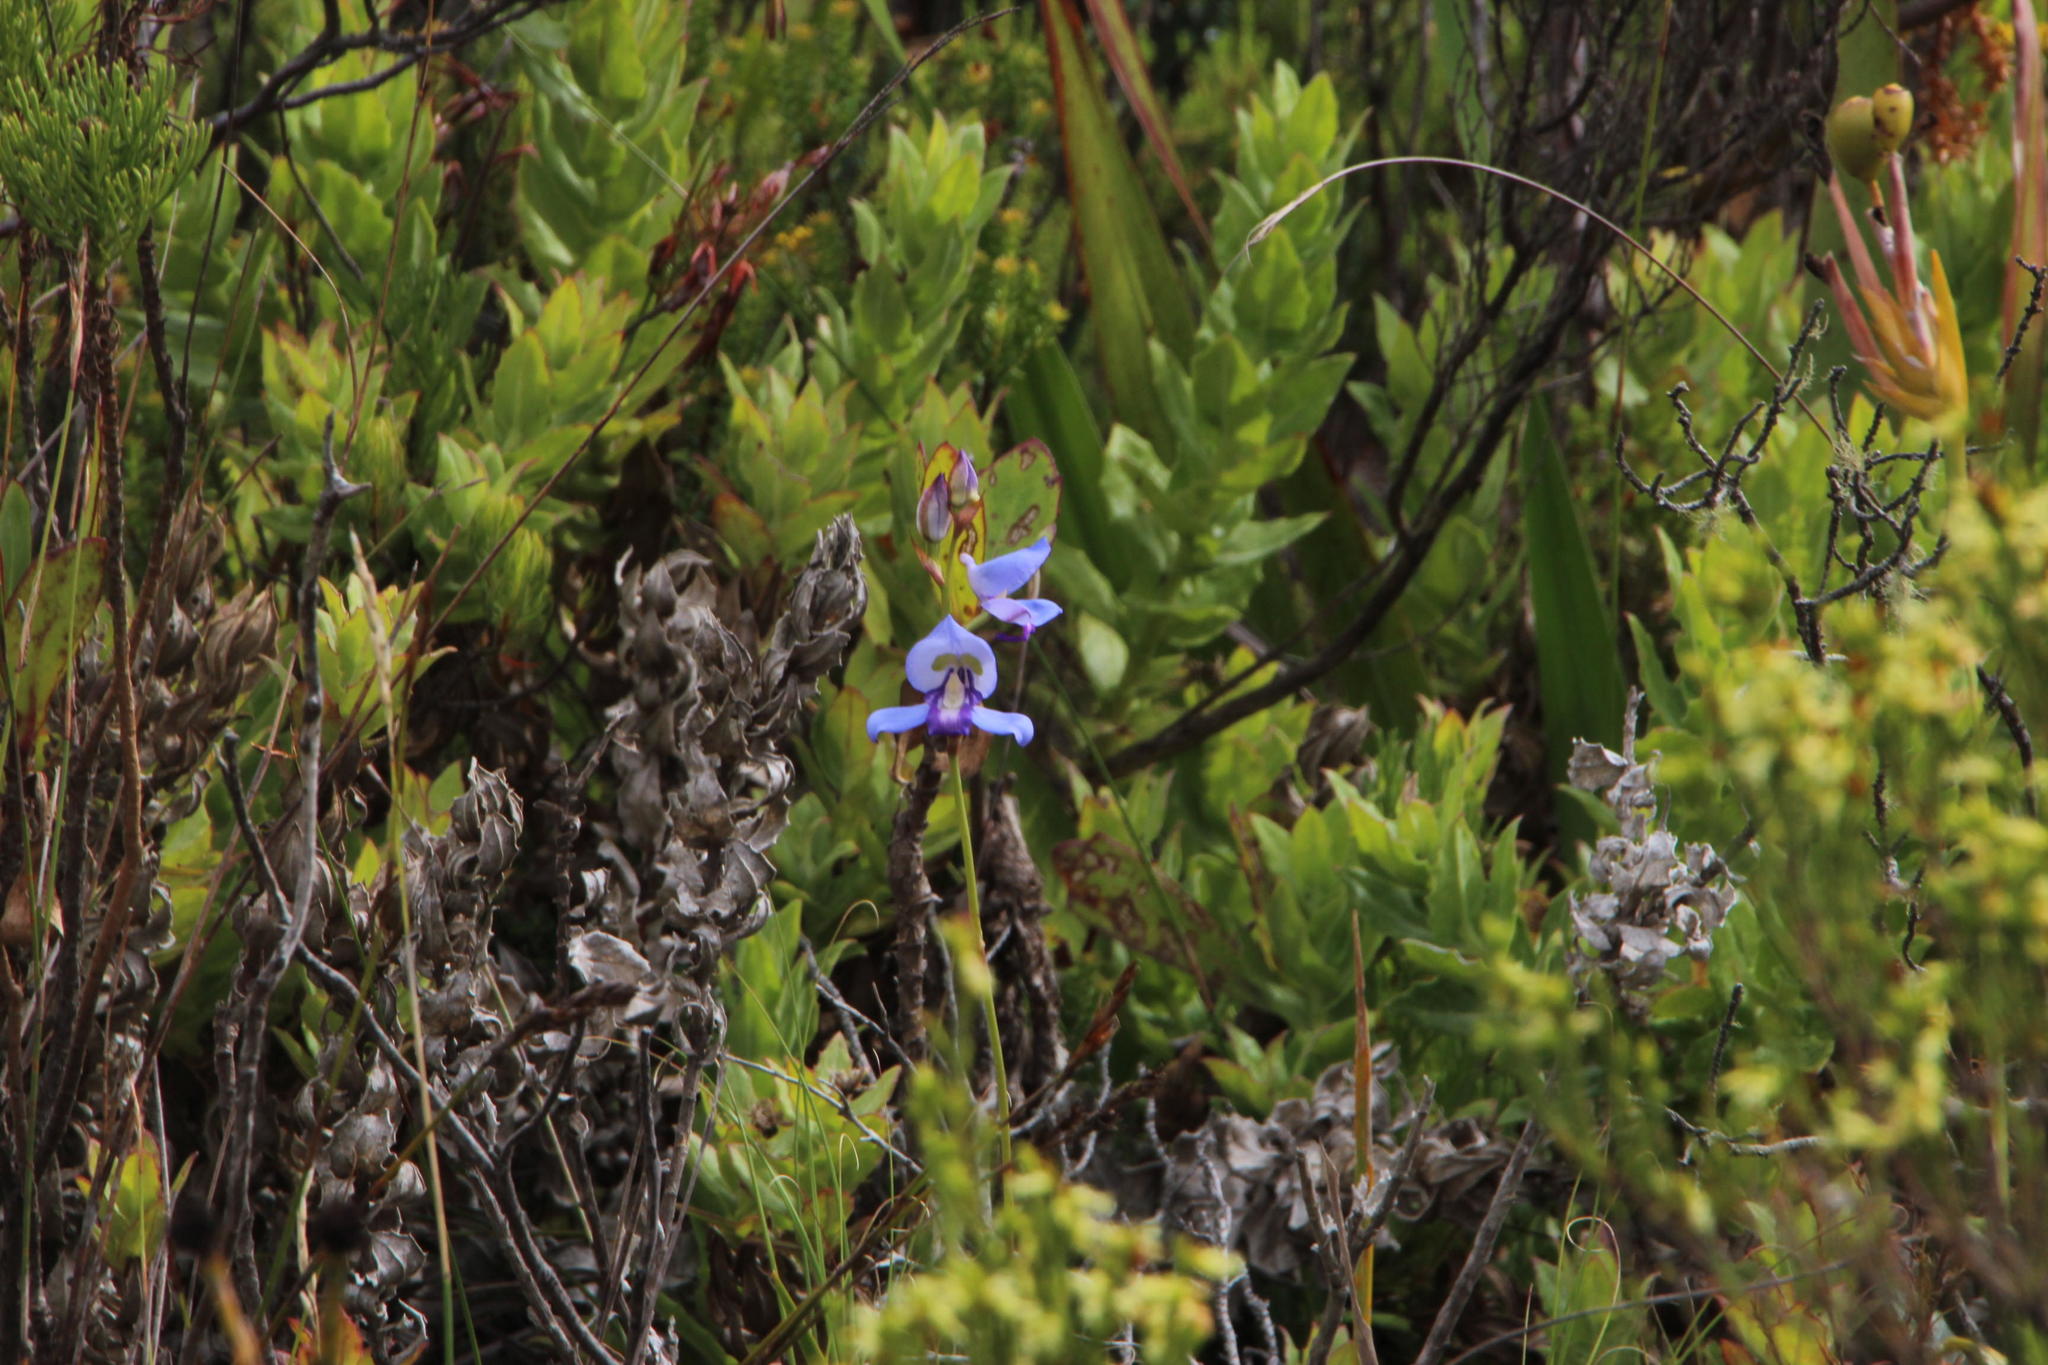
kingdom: Plantae
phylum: Tracheophyta
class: Liliopsida
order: Asparagales
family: Orchidaceae
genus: Disa
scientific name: Disa graminifolia
